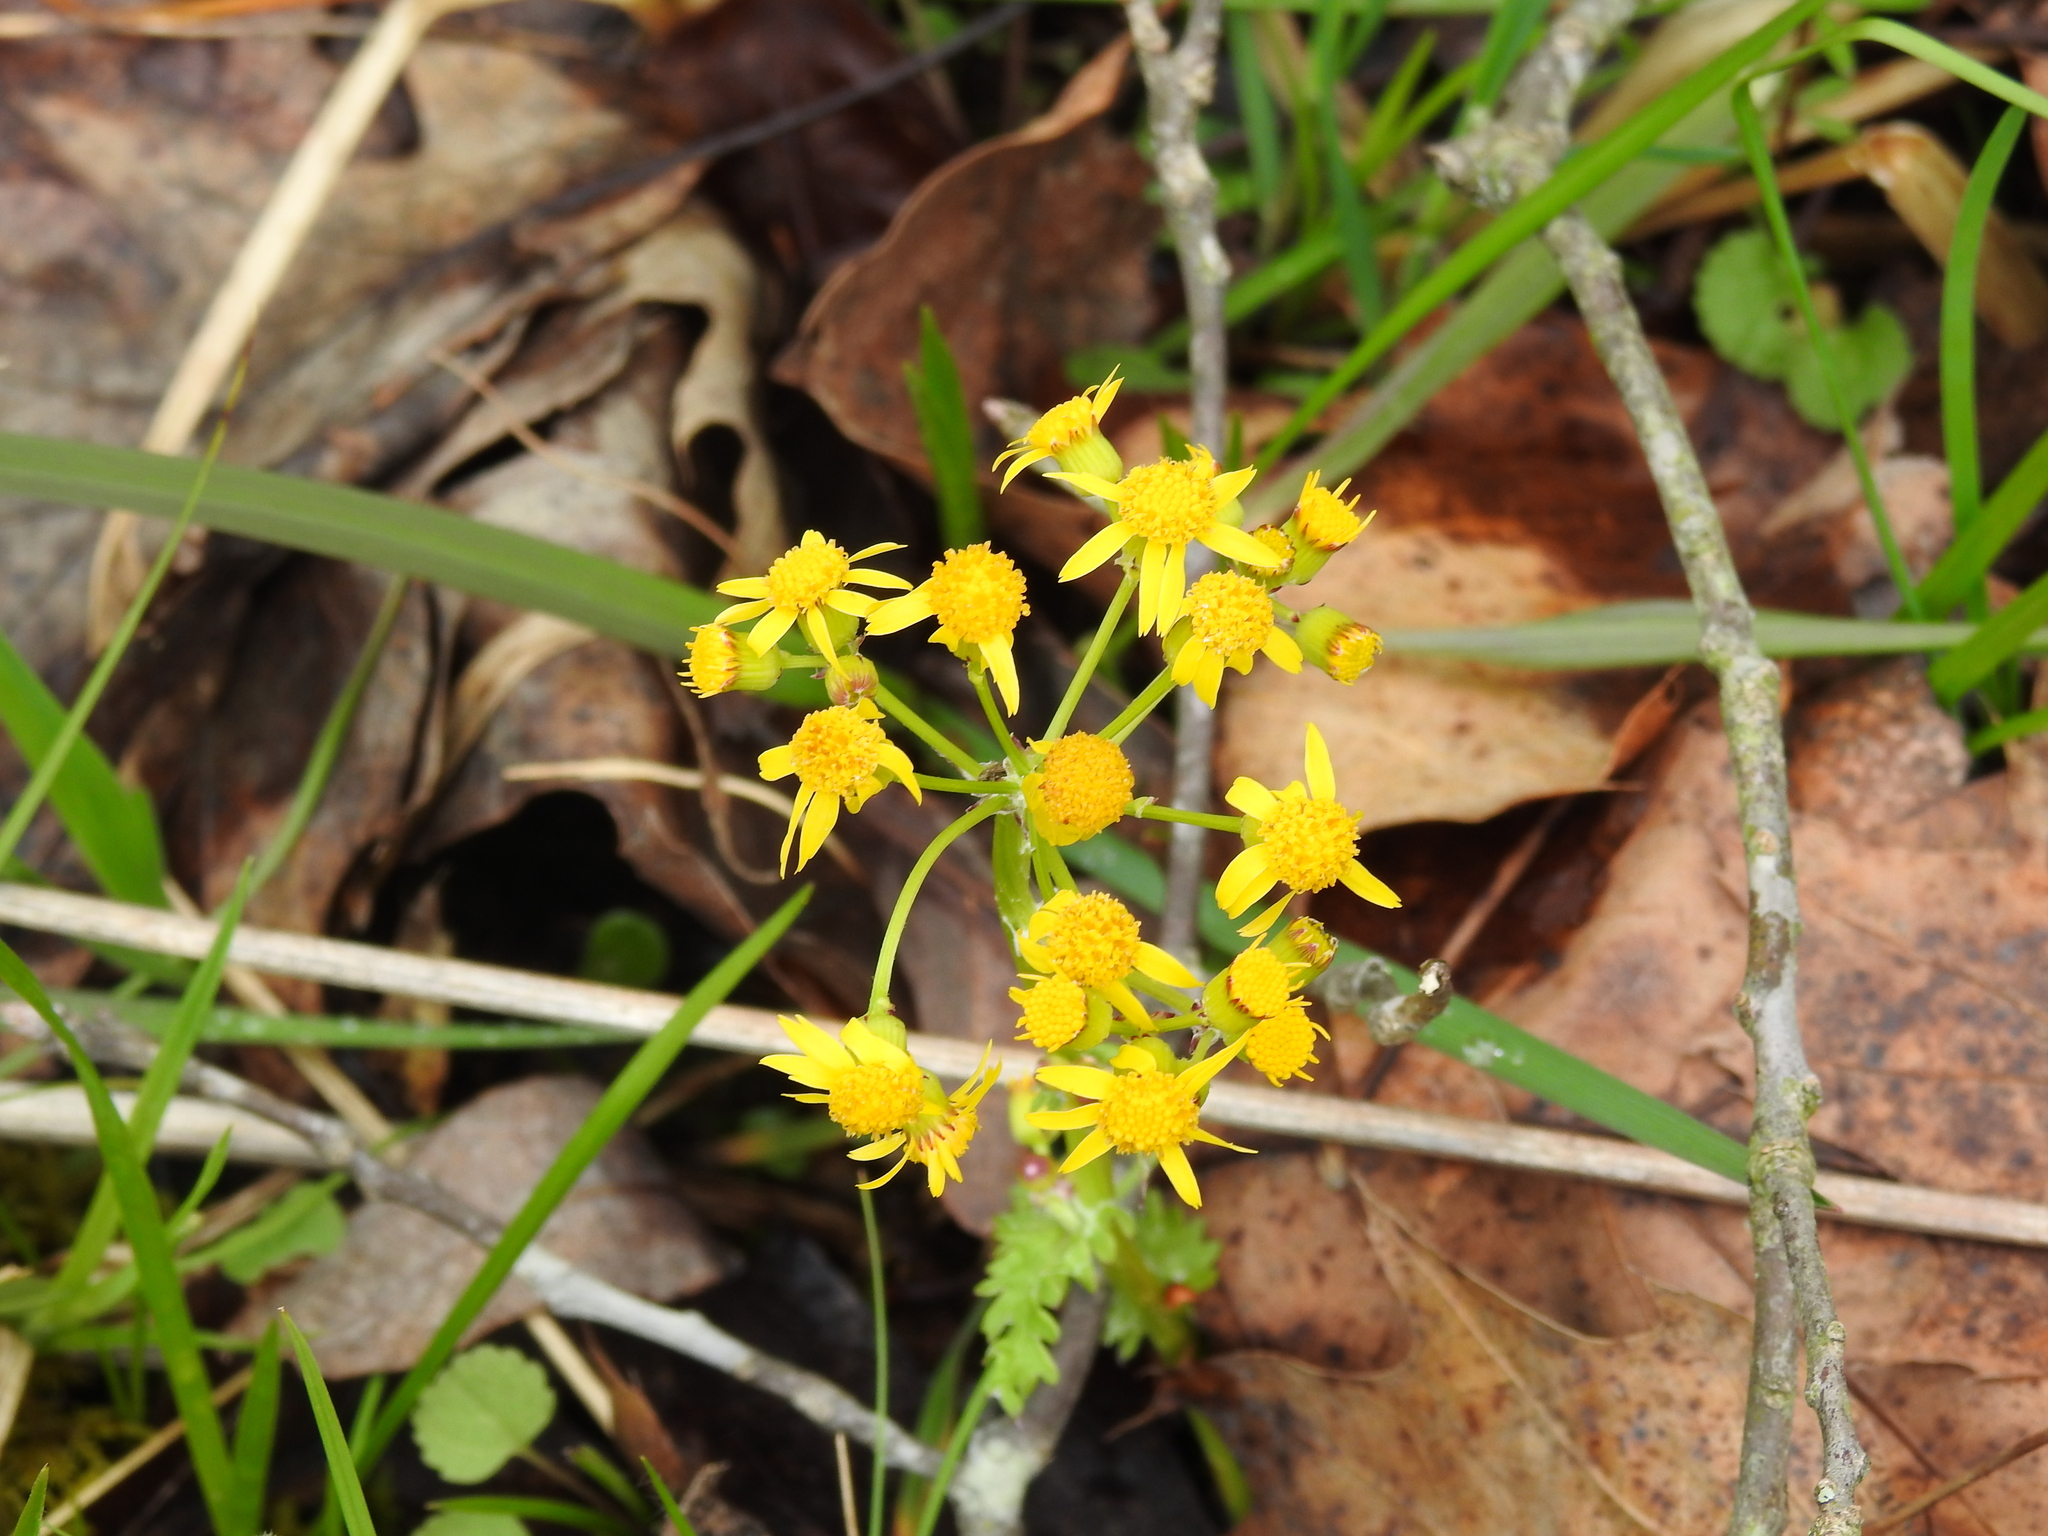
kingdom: Plantae
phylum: Tracheophyta
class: Magnoliopsida
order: Asterales
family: Asteraceae
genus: Packera
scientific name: Packera obovata
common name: Round-leaf ragwort
